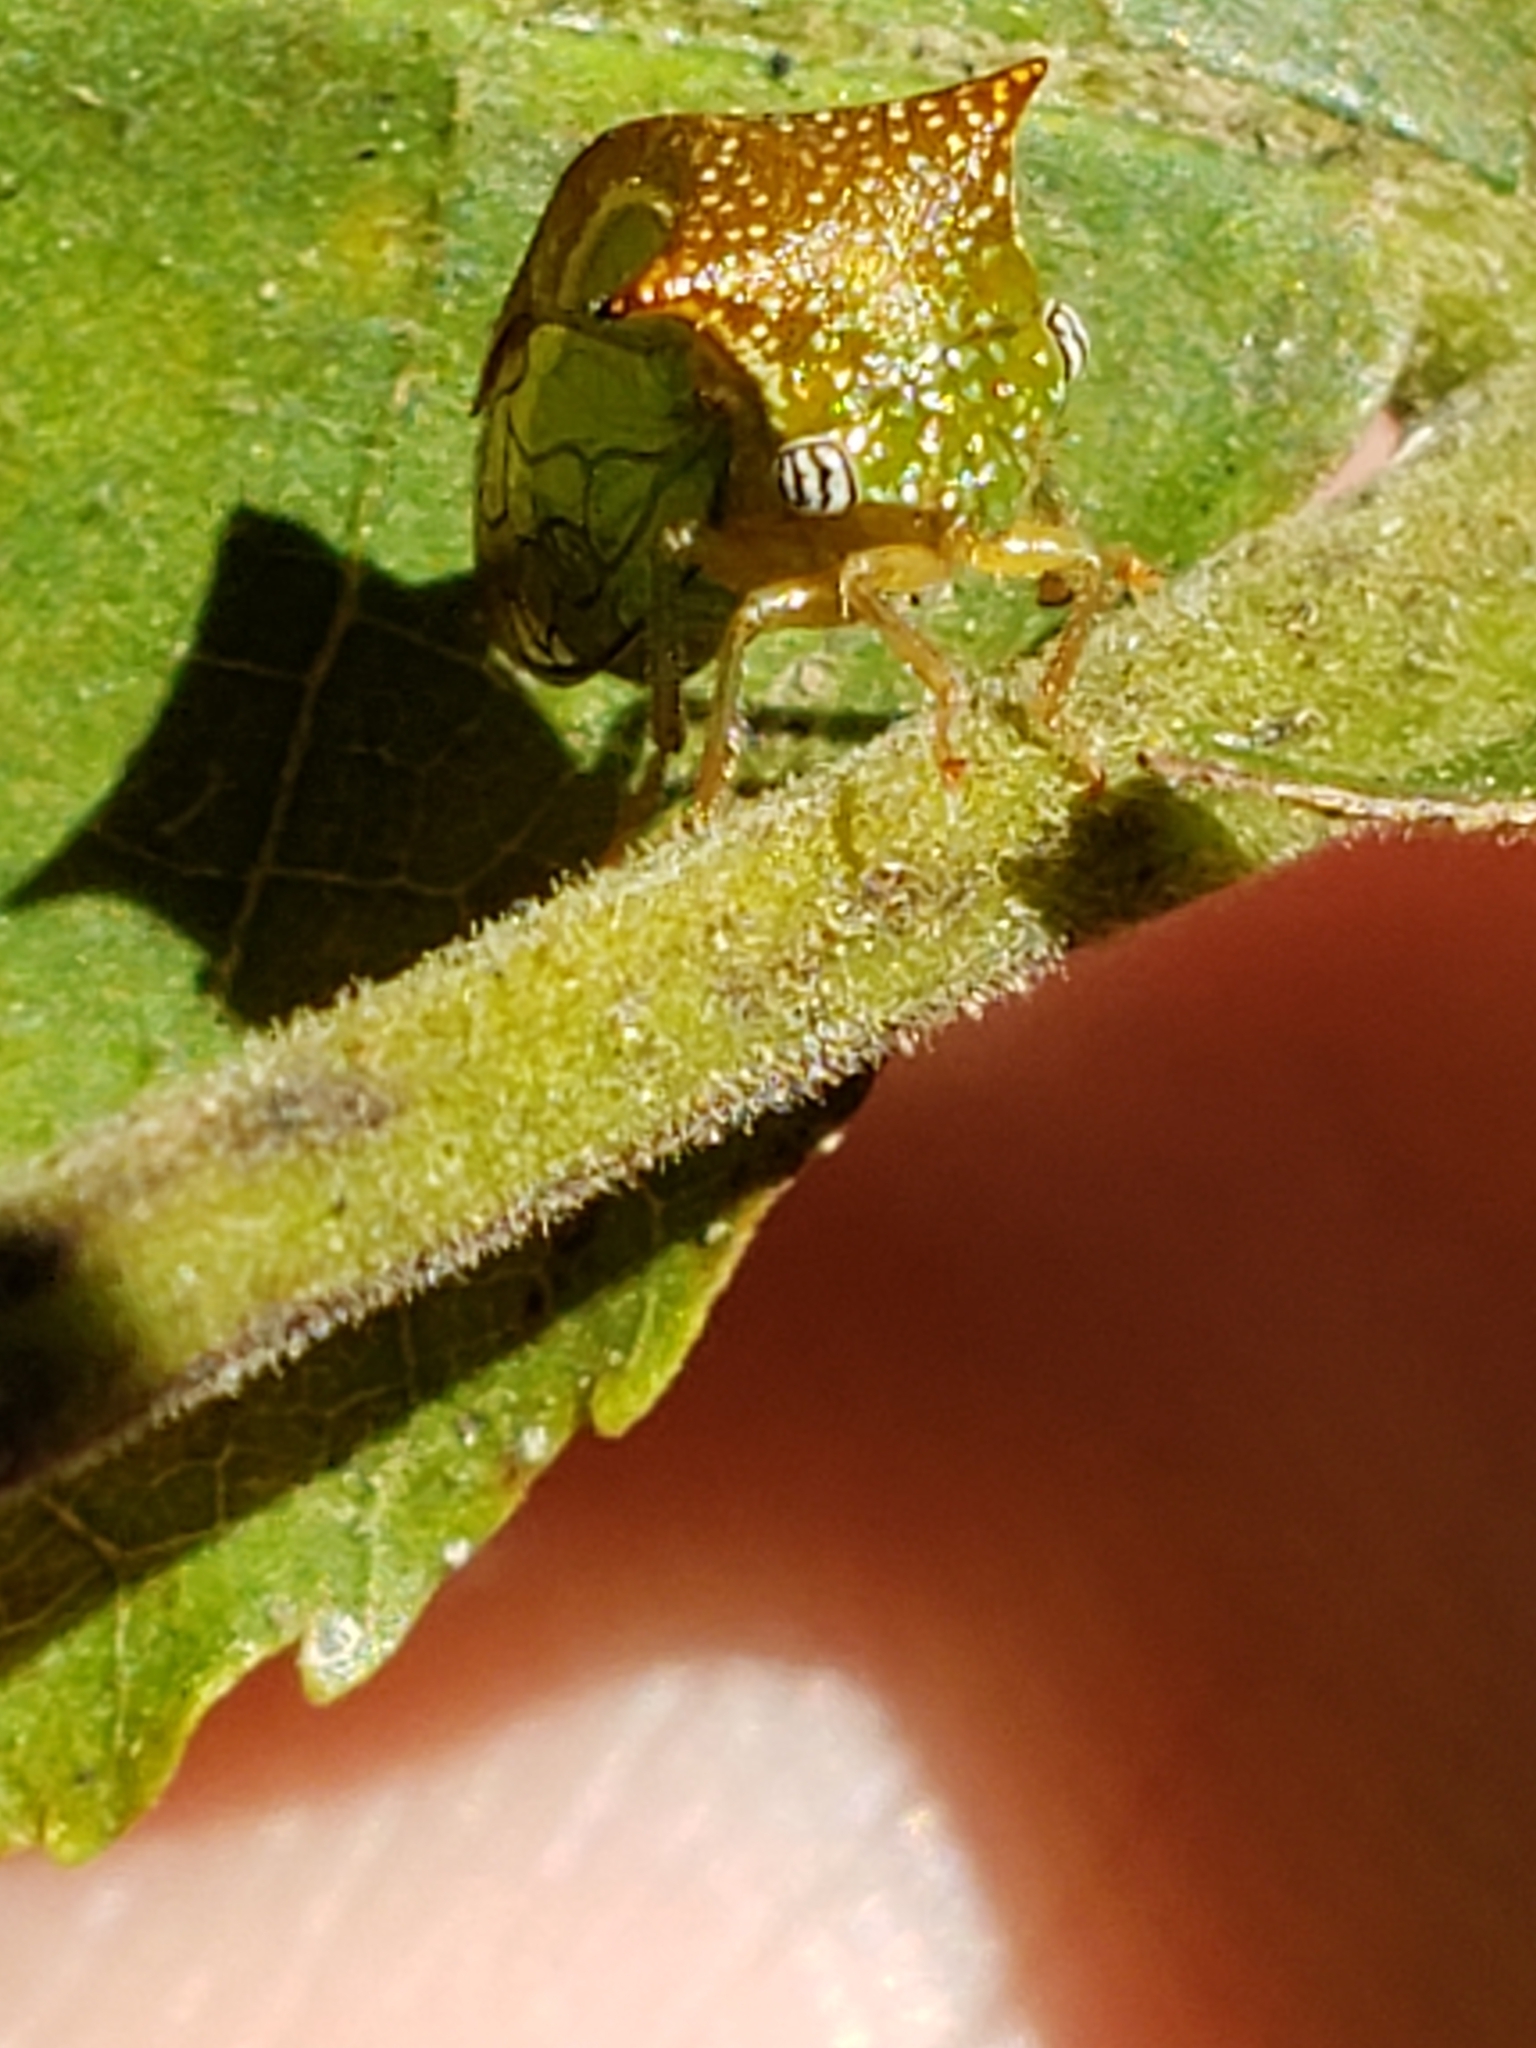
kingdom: Animalia
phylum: Arthropoda
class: Insecta
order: Hemiptera
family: Membracidae
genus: Stictolobus
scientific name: Stictolobus borealis
